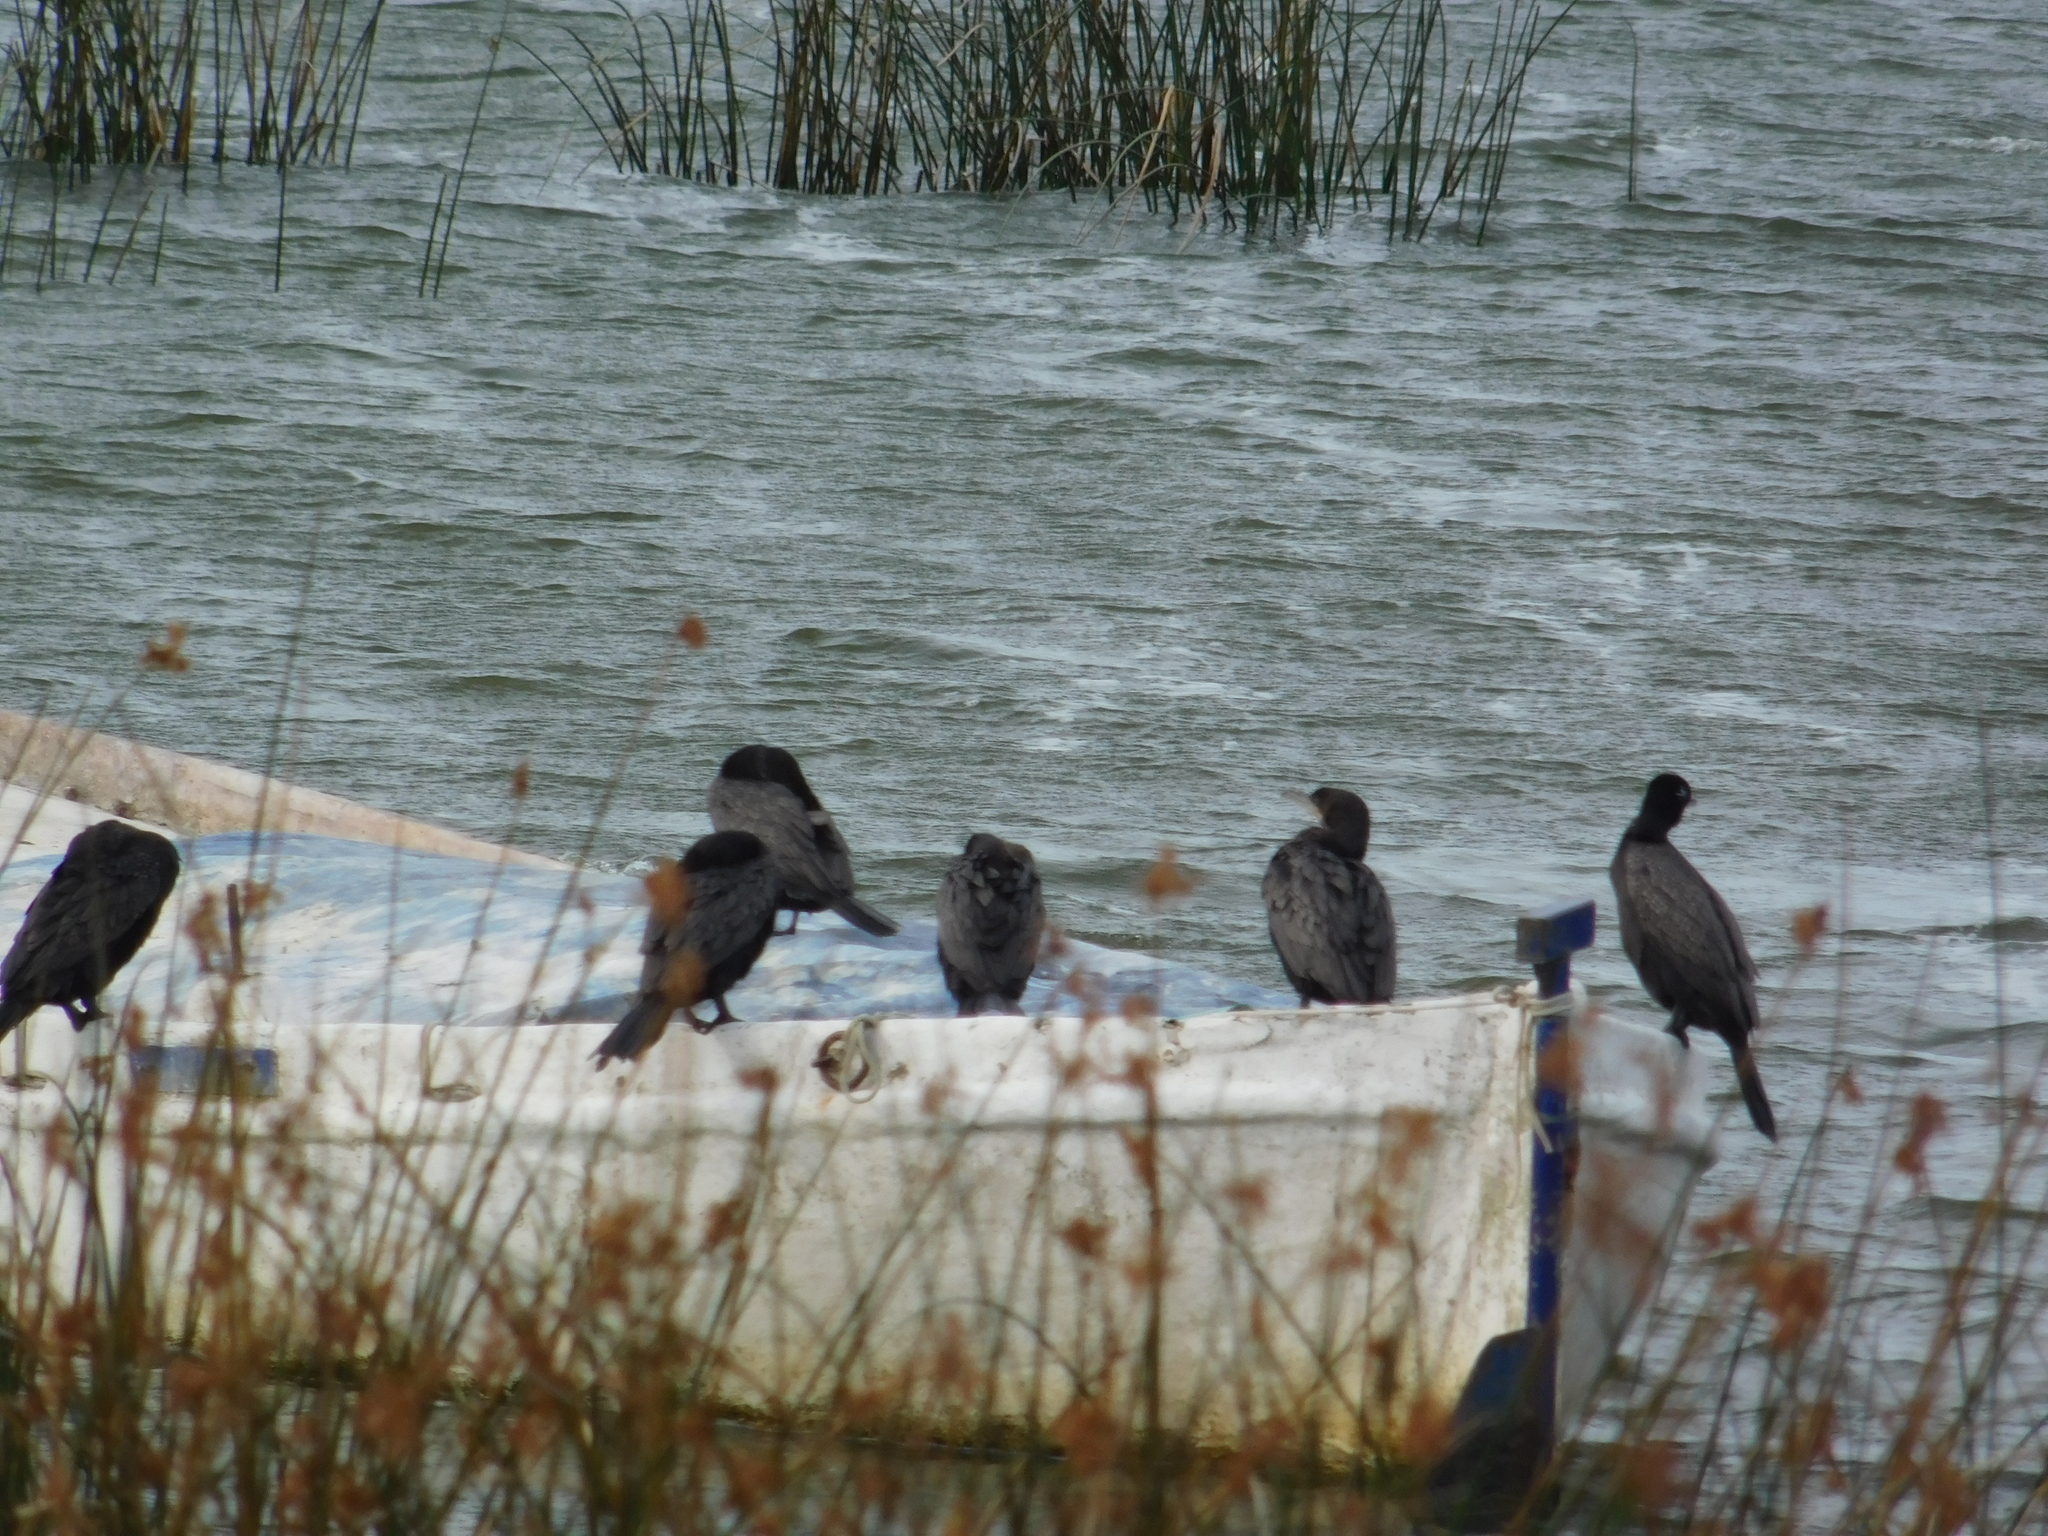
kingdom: Animalia
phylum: Chordata
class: Aves
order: Suliformes
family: Phalacrocoracidae
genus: Phalacrocorax
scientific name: Phalacrocorax brasilianus
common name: Neotropic cormorant
